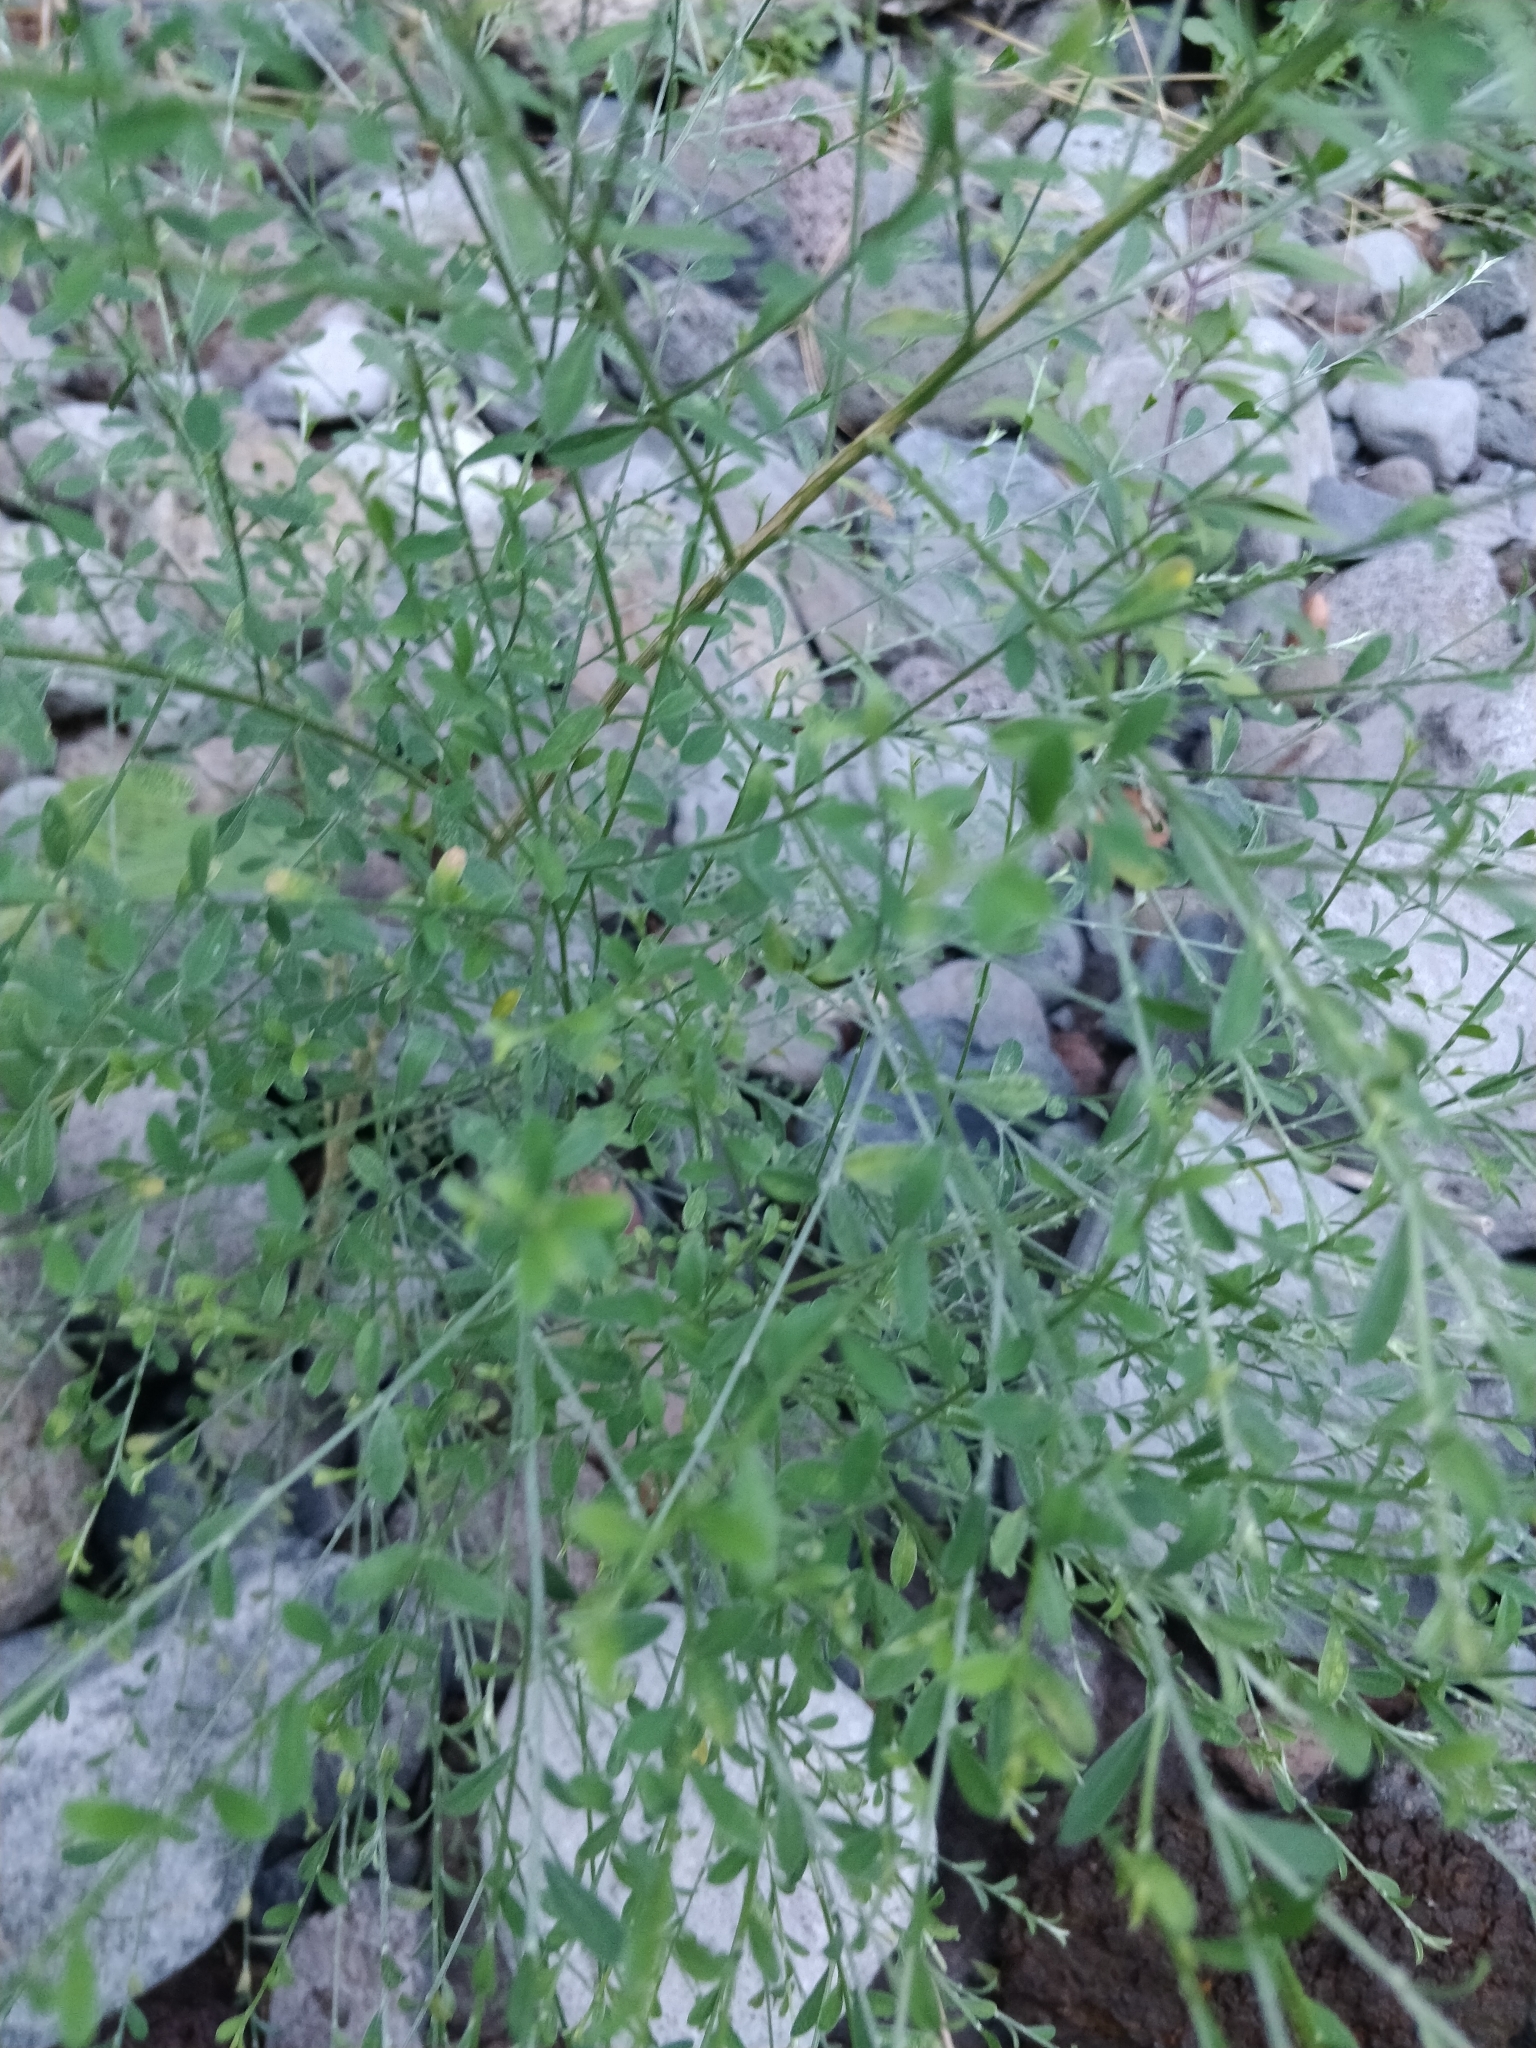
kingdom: Plantae
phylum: Tracheophyta
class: Magnoliopsida
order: Fabales
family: Fabaceae
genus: Genista
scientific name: Genista tenera
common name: Madeira broom
